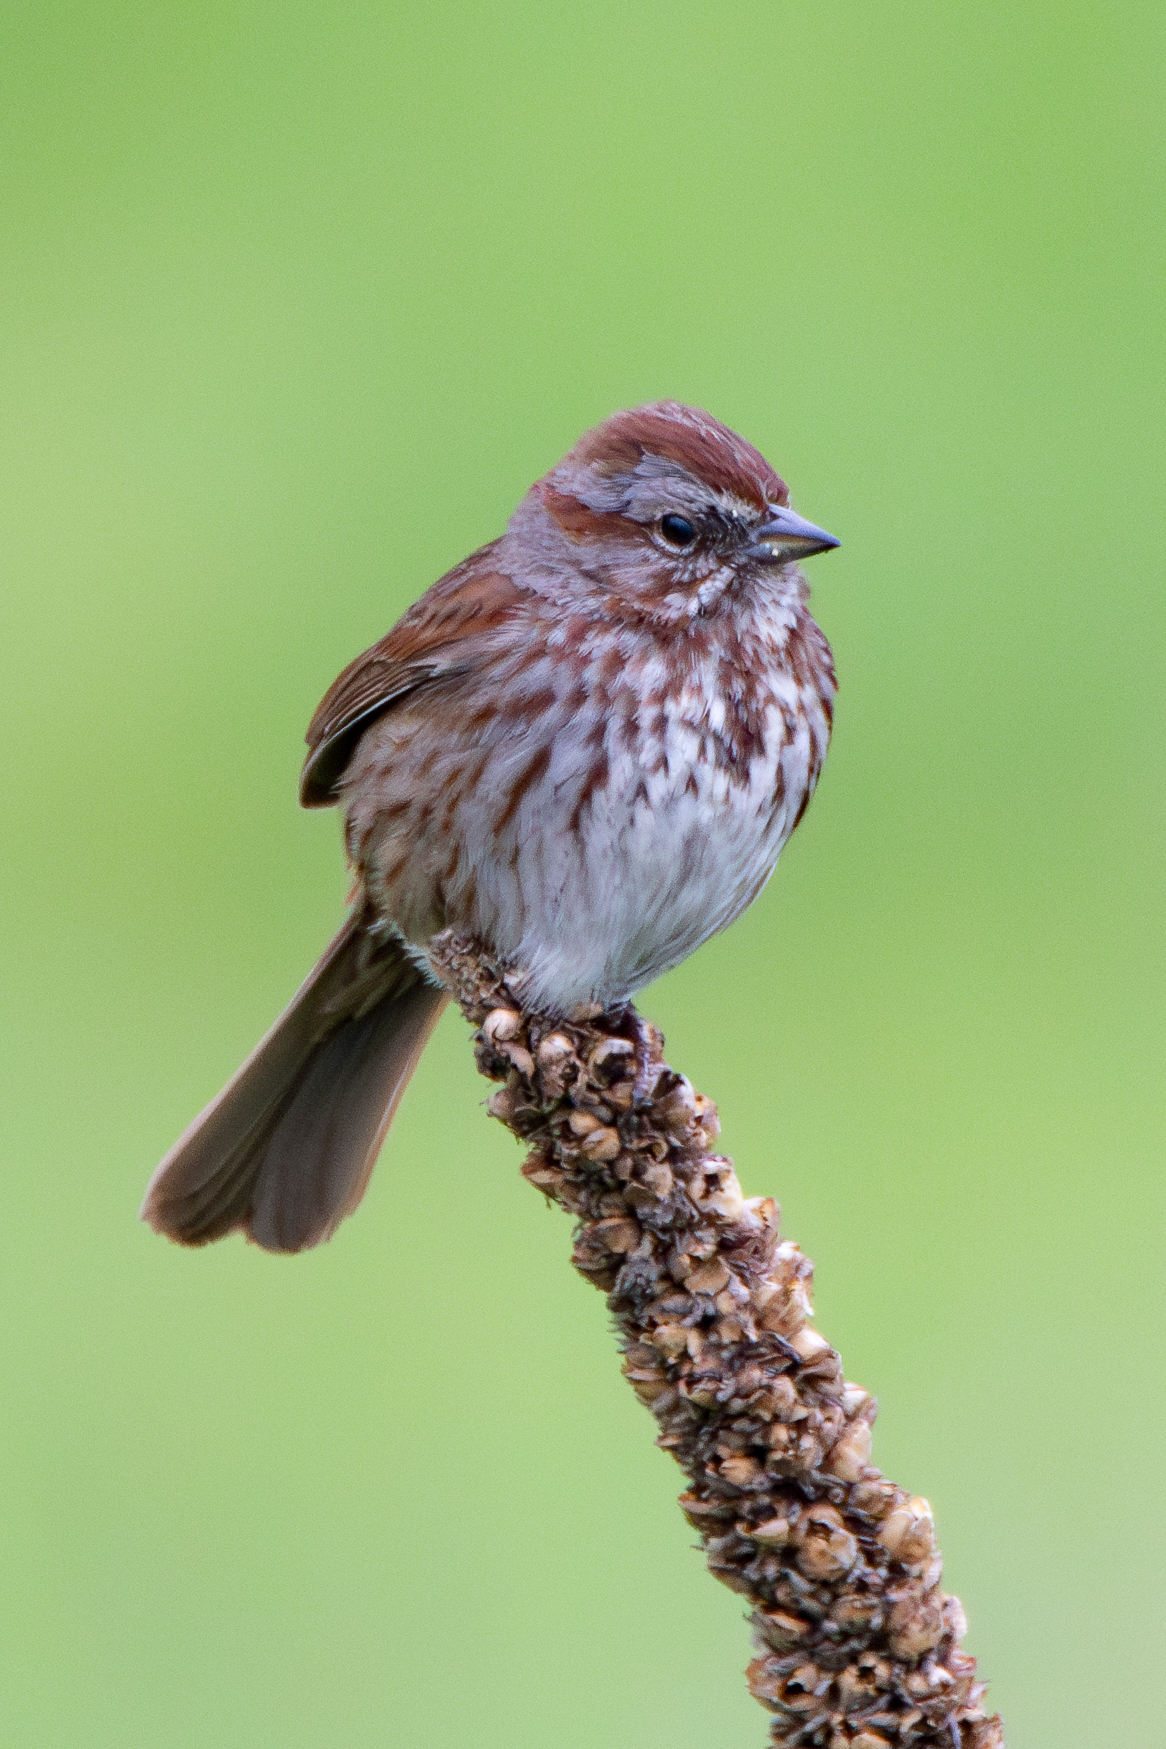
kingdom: Animalia
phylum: Chordata
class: Aves
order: Passeriformes
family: Passerellidae
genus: Melospiza
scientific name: Melospiza melodia
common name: Song sparrow
